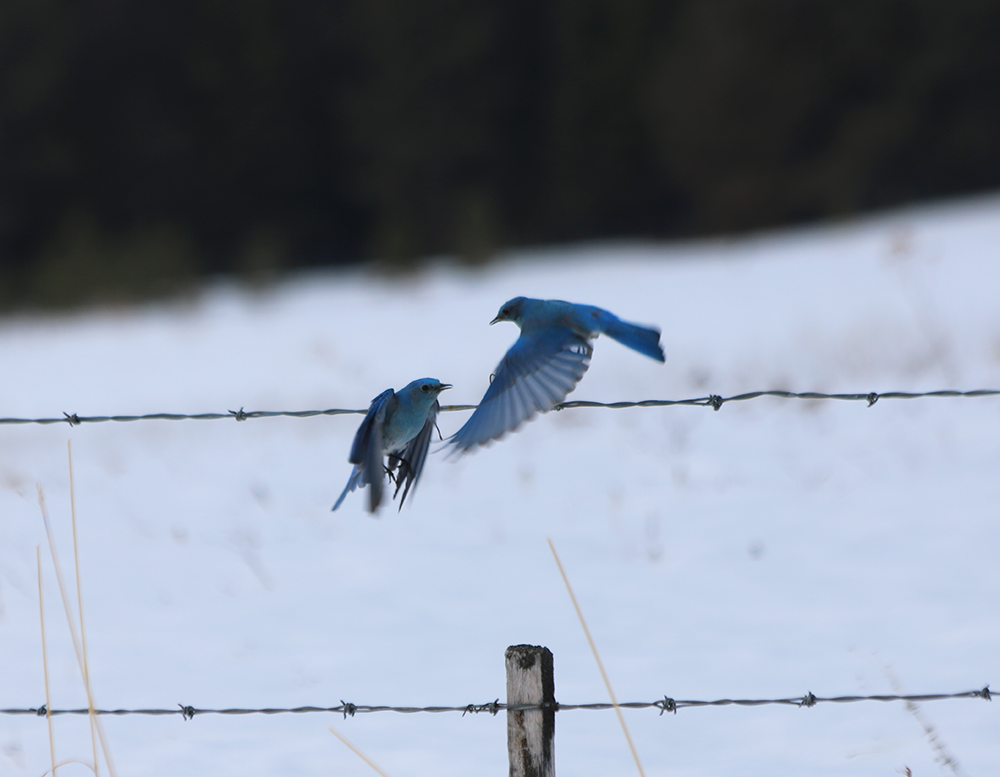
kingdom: Animalia
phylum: Chordata
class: Aves
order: Passeriformes
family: Turdidae
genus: Sialia
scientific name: Sialia currucoides
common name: Mountain bluebird
